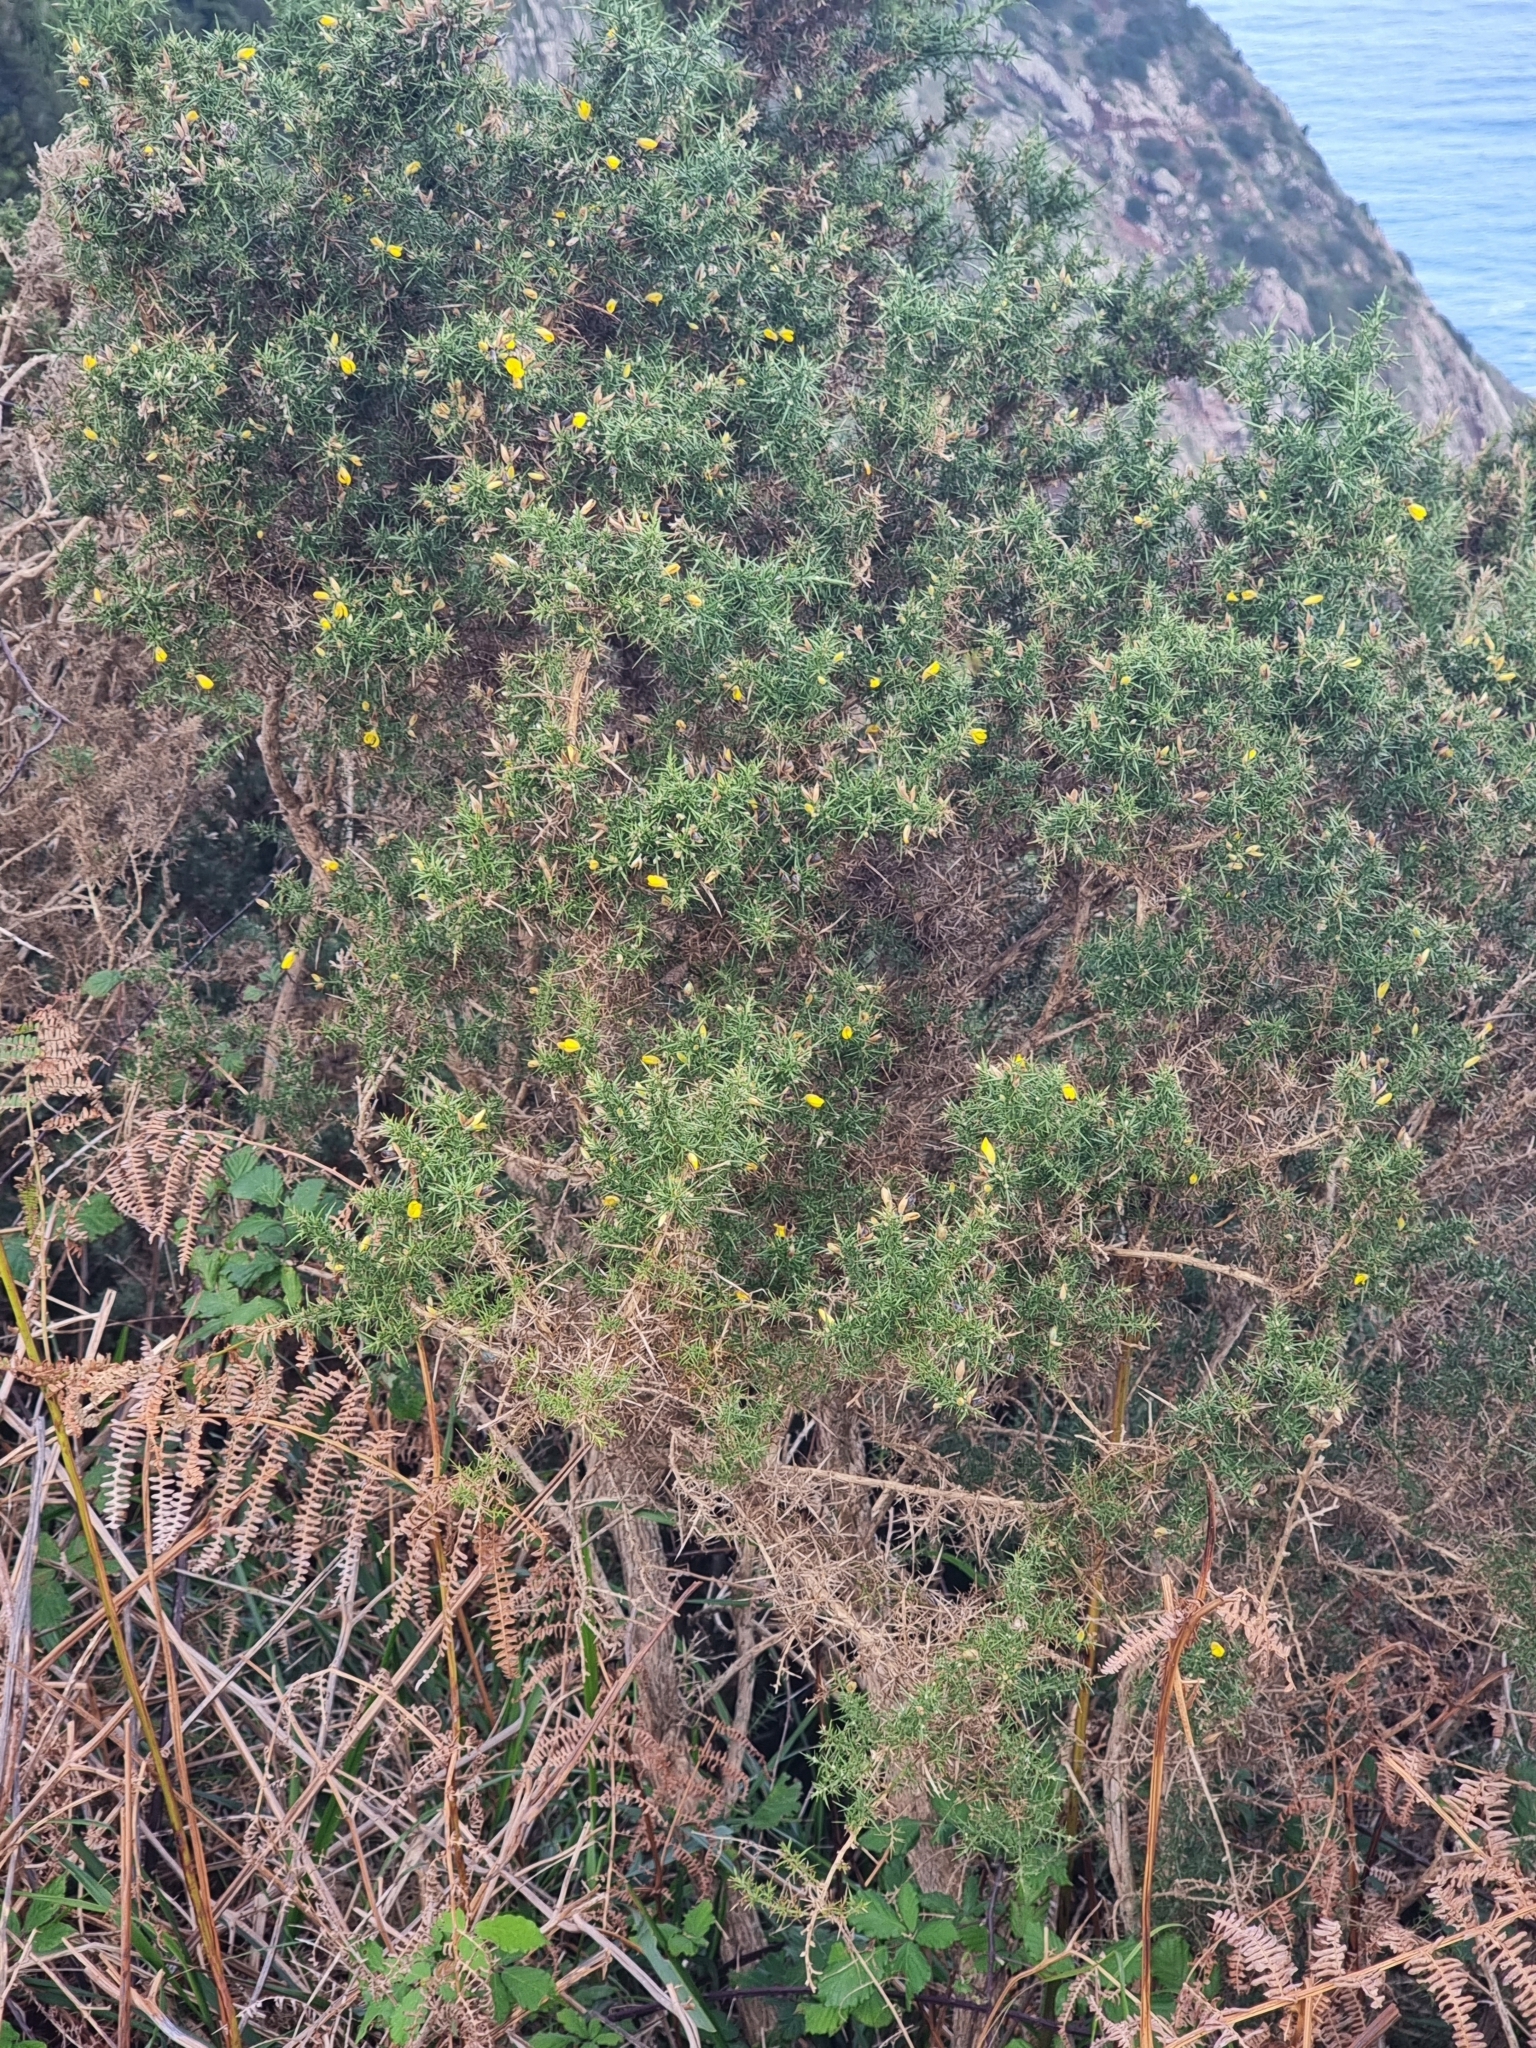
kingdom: Plantae
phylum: Tracheophyta
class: Magnoliopsida
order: Fabales
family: Fabaceae
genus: Ulex
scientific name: Ulex europaeus
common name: Common gorse
